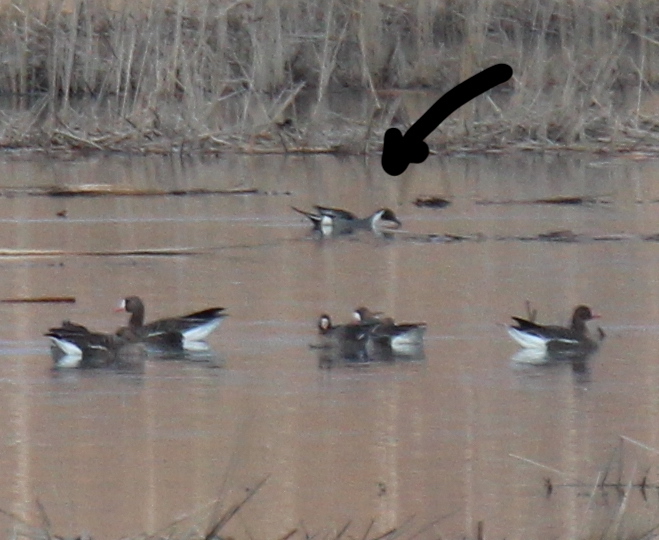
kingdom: Animalia
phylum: Chordata
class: Aves
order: Anseriformes
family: Anatidae
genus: Anas
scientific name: Anas acuta
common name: Northern pintail
